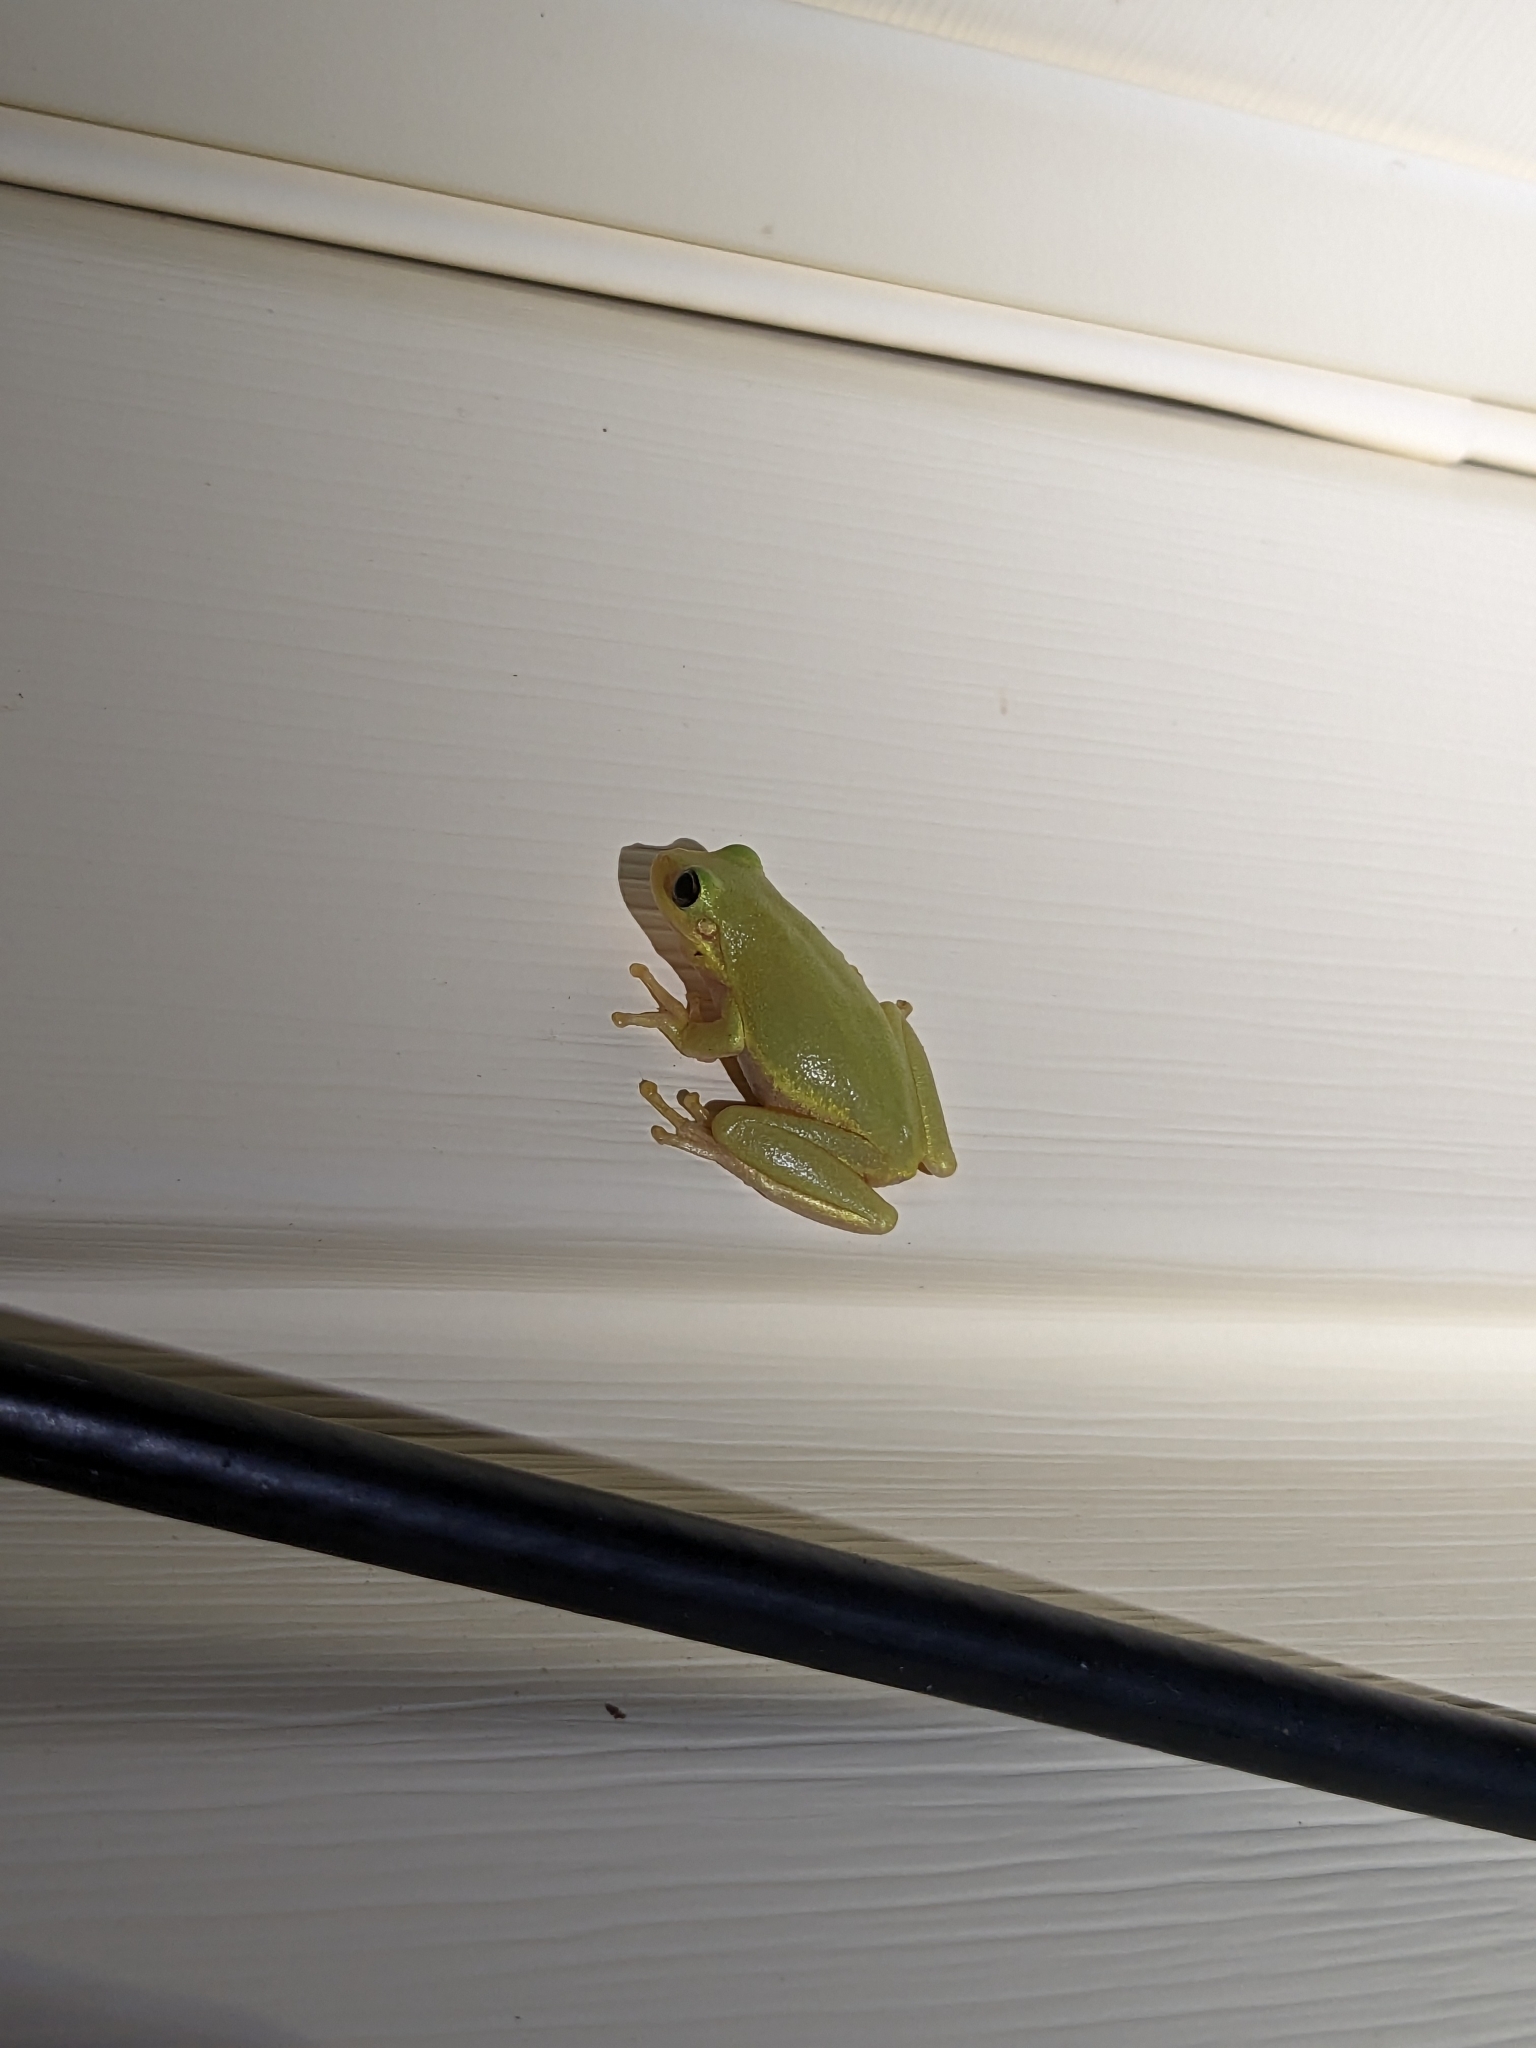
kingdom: Animalia
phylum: Chordata
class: Amphibia
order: Anura
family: Hylidae
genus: Dryophytes
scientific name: Dryophytes squirellus
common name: Squirrel treefrog
